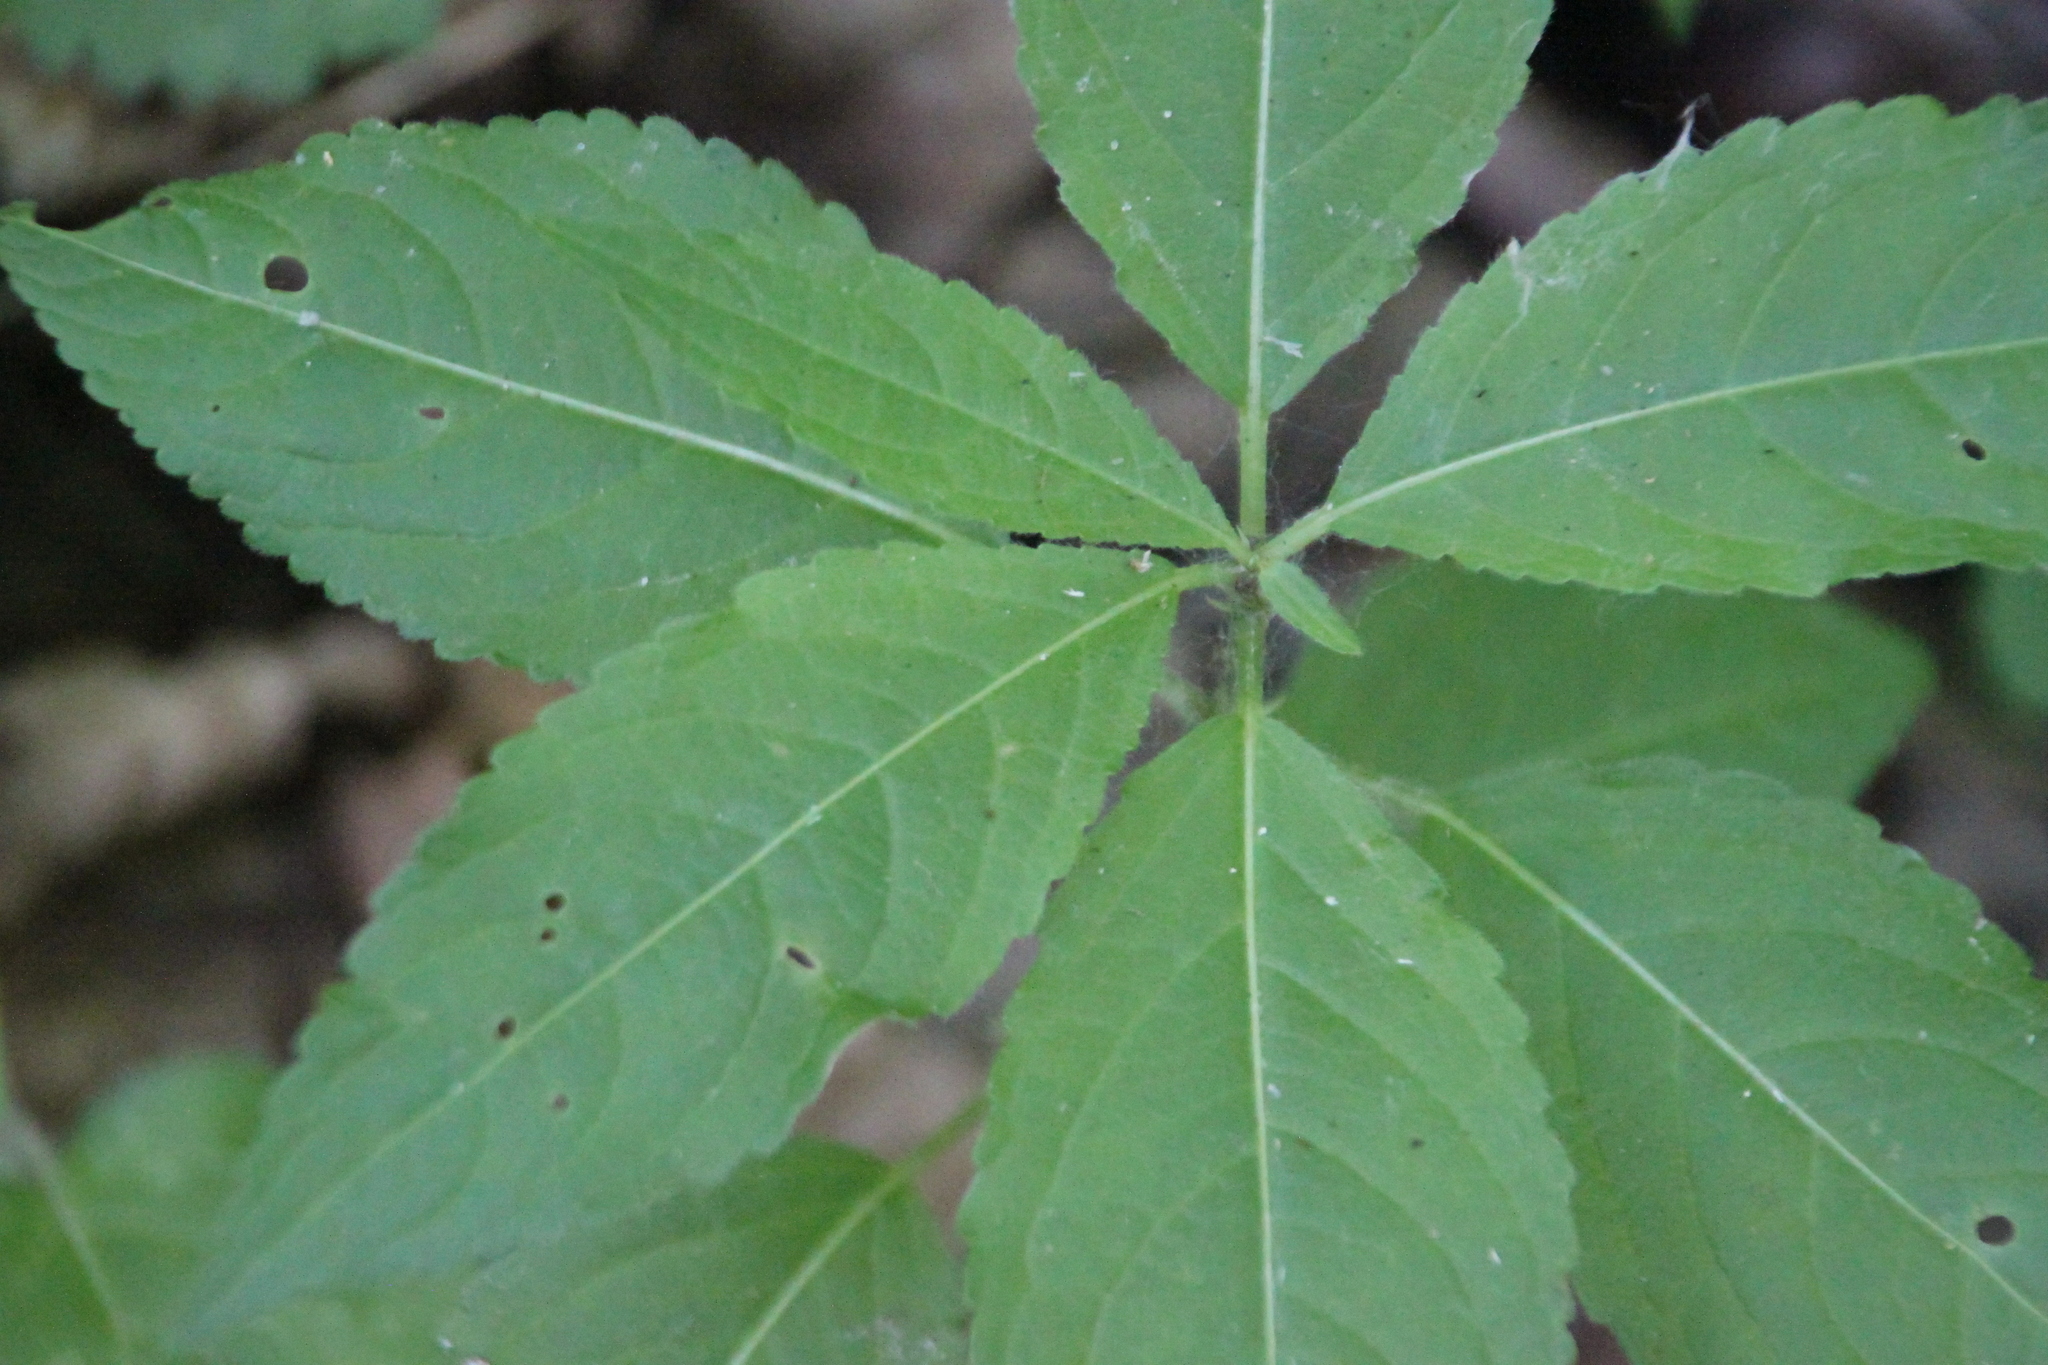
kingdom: Plantae
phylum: Tracheophyta
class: Magnoliopsida
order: Malpighiales
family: Euphorbiaceae
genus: Mercurialis
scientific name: Mercurialis perennis
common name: Dog mercury
